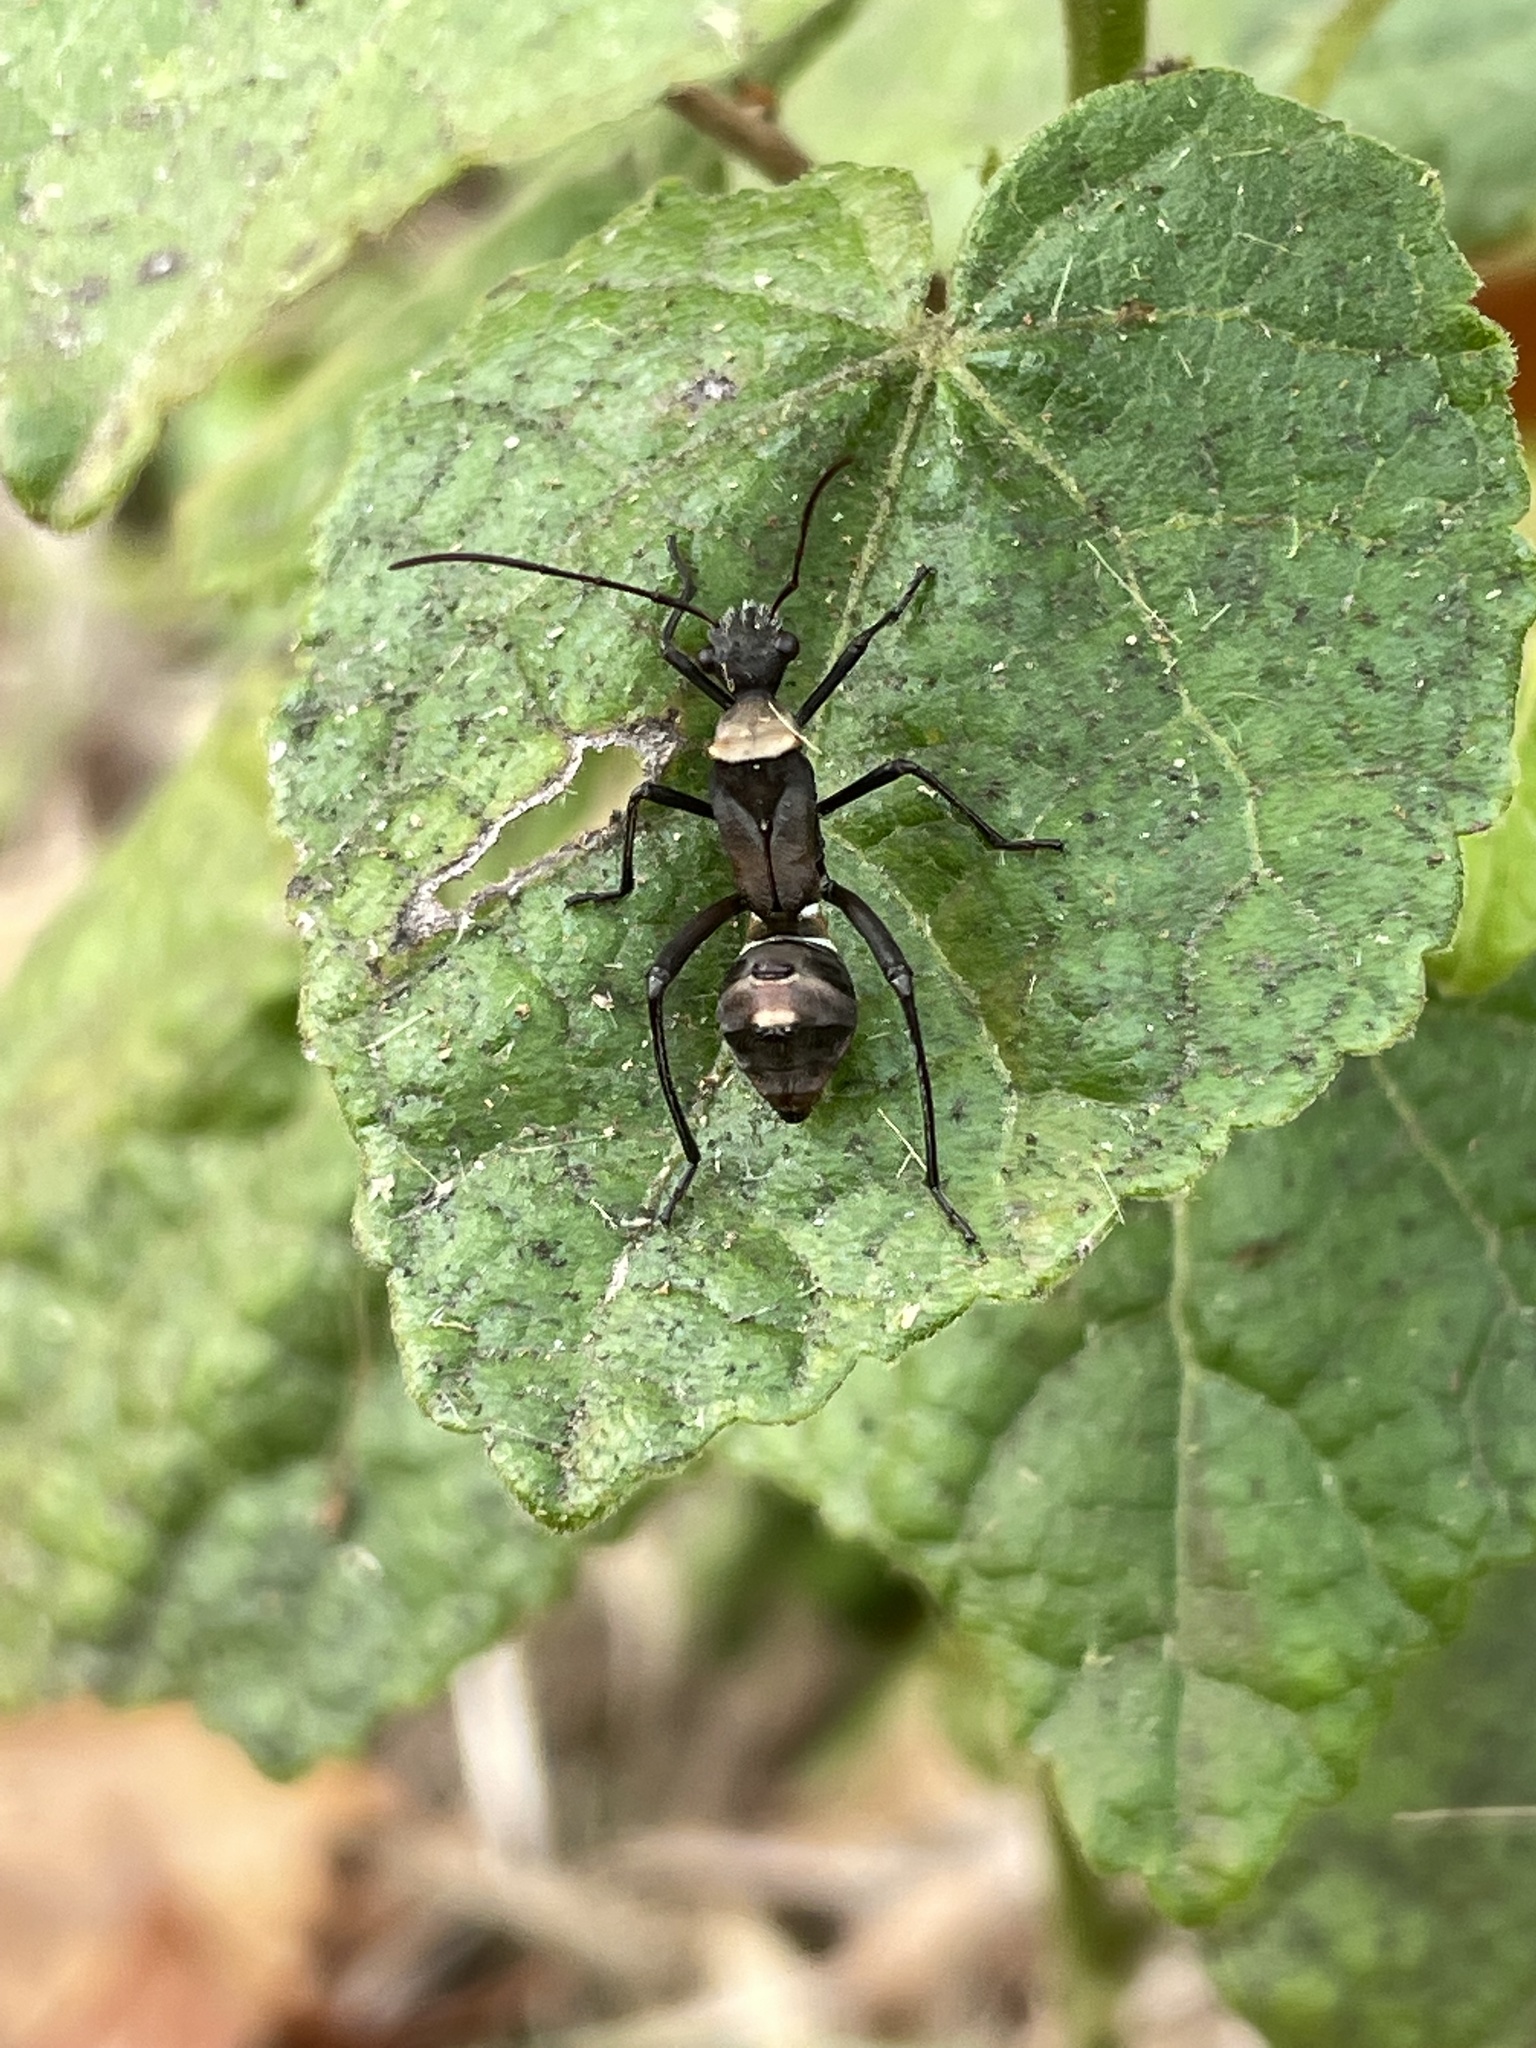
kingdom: Animalia
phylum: Arthropoda
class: Insecta
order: Hemiptera
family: Alydidae
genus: Hyalymenus
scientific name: Hyalymenus tarsatus
